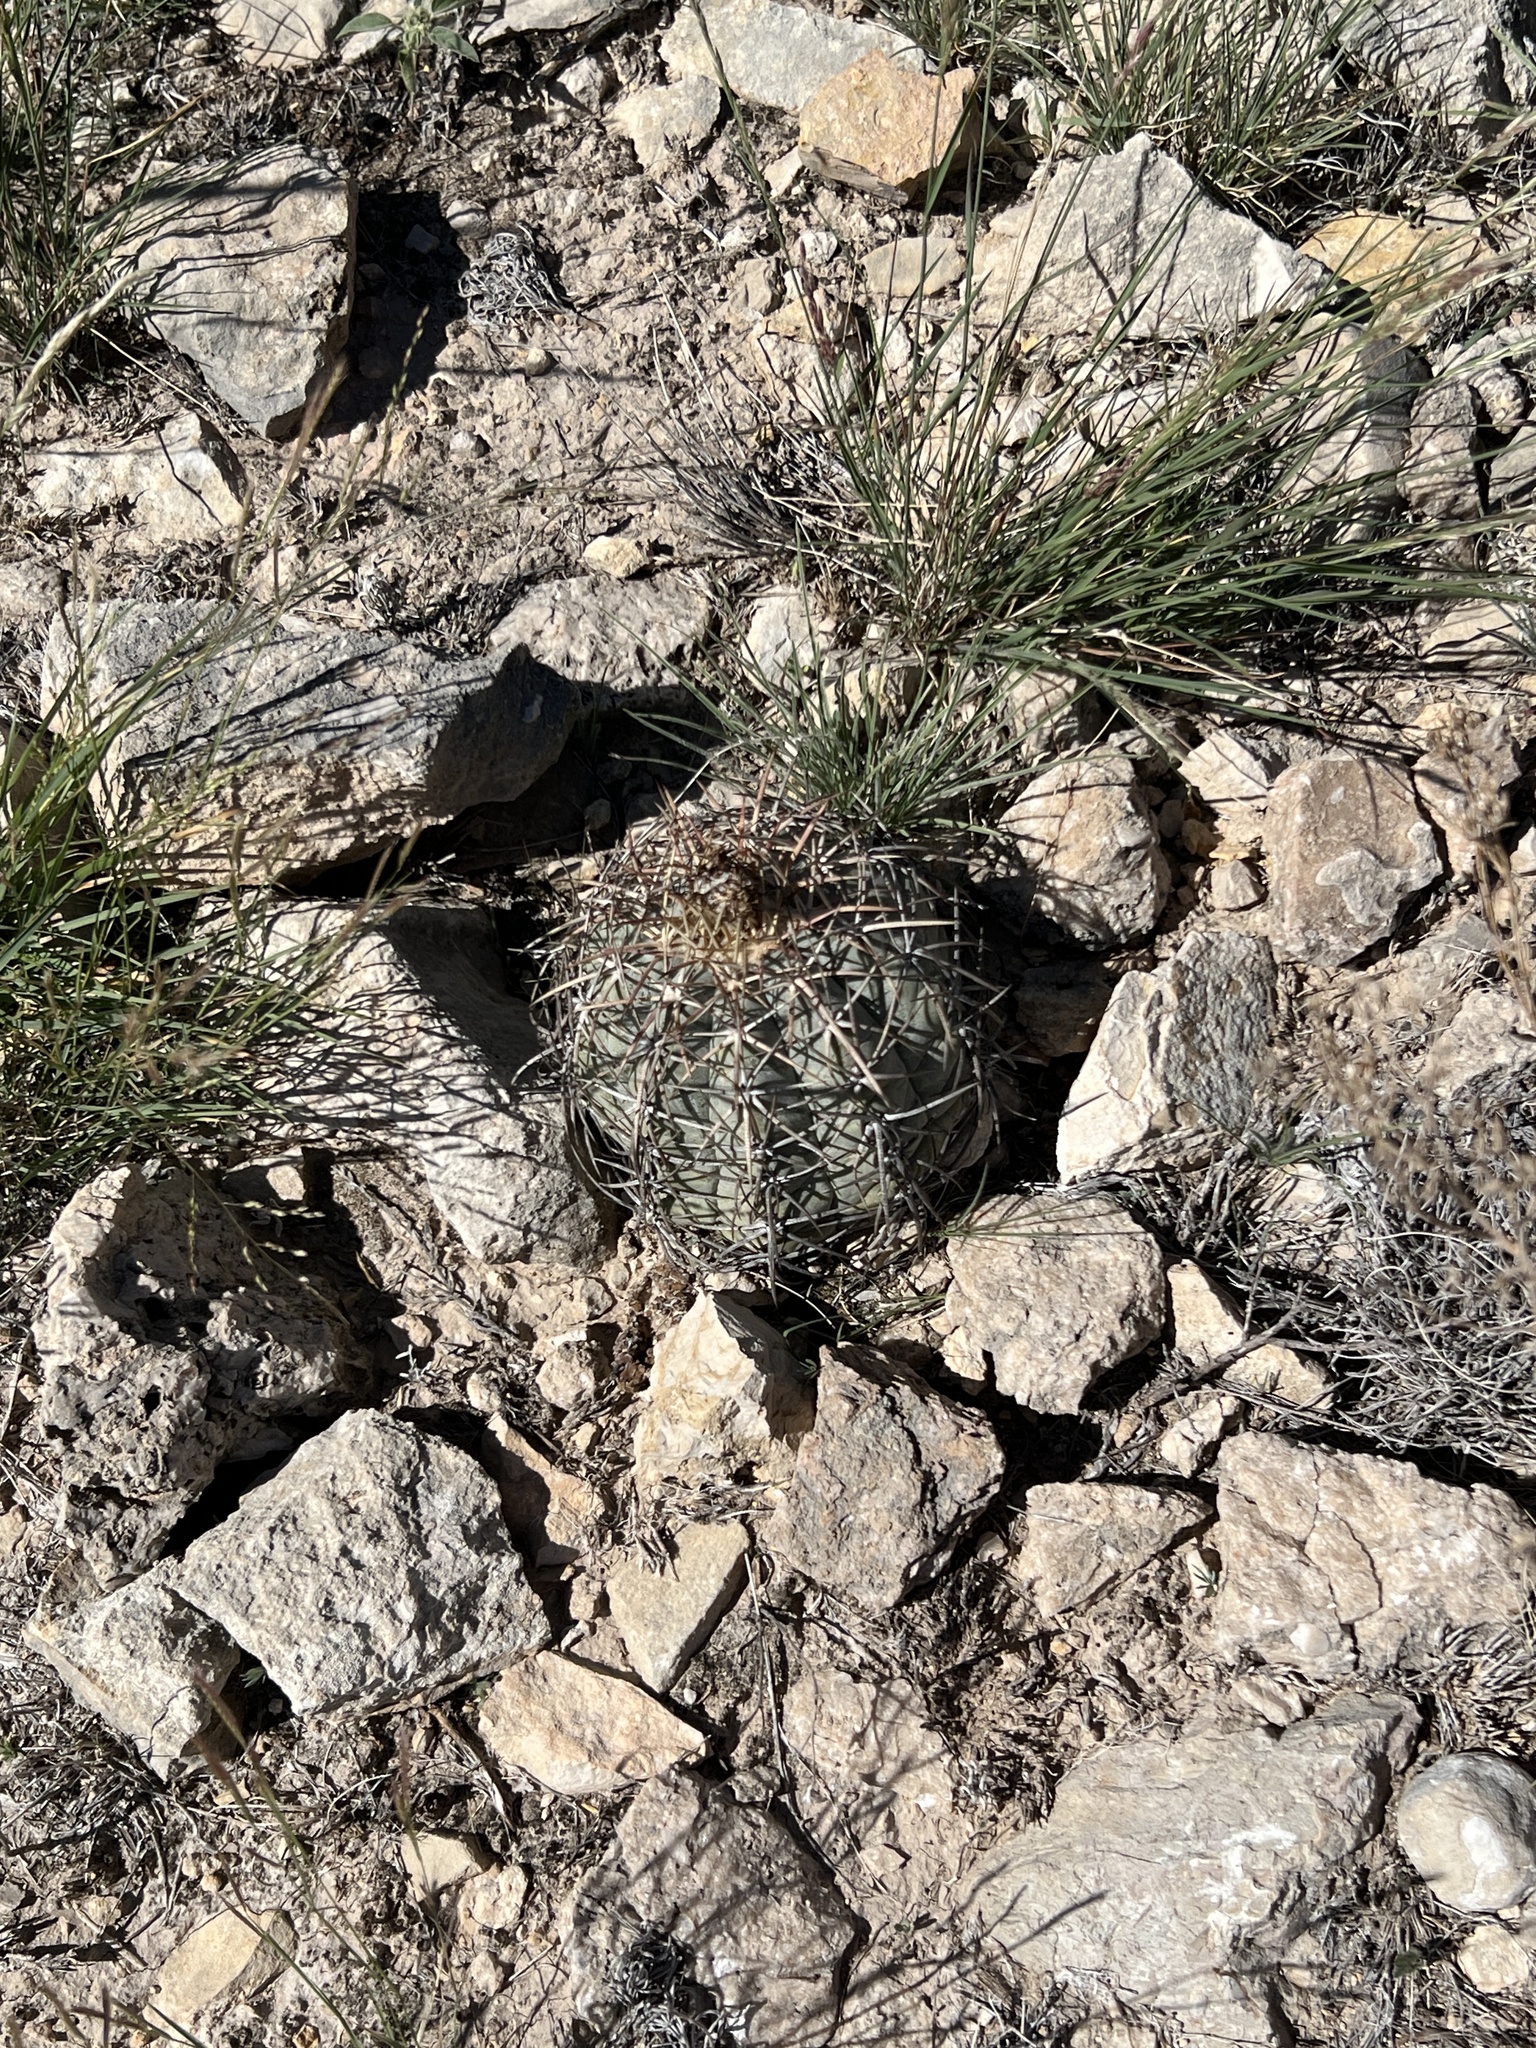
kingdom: Plantae
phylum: Tracheophyta
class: Magnoliopsida
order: Caryophyllales
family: Cactaceae
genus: Echinocactus
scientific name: Echinocactus horizonthalonius
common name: Devilshead
